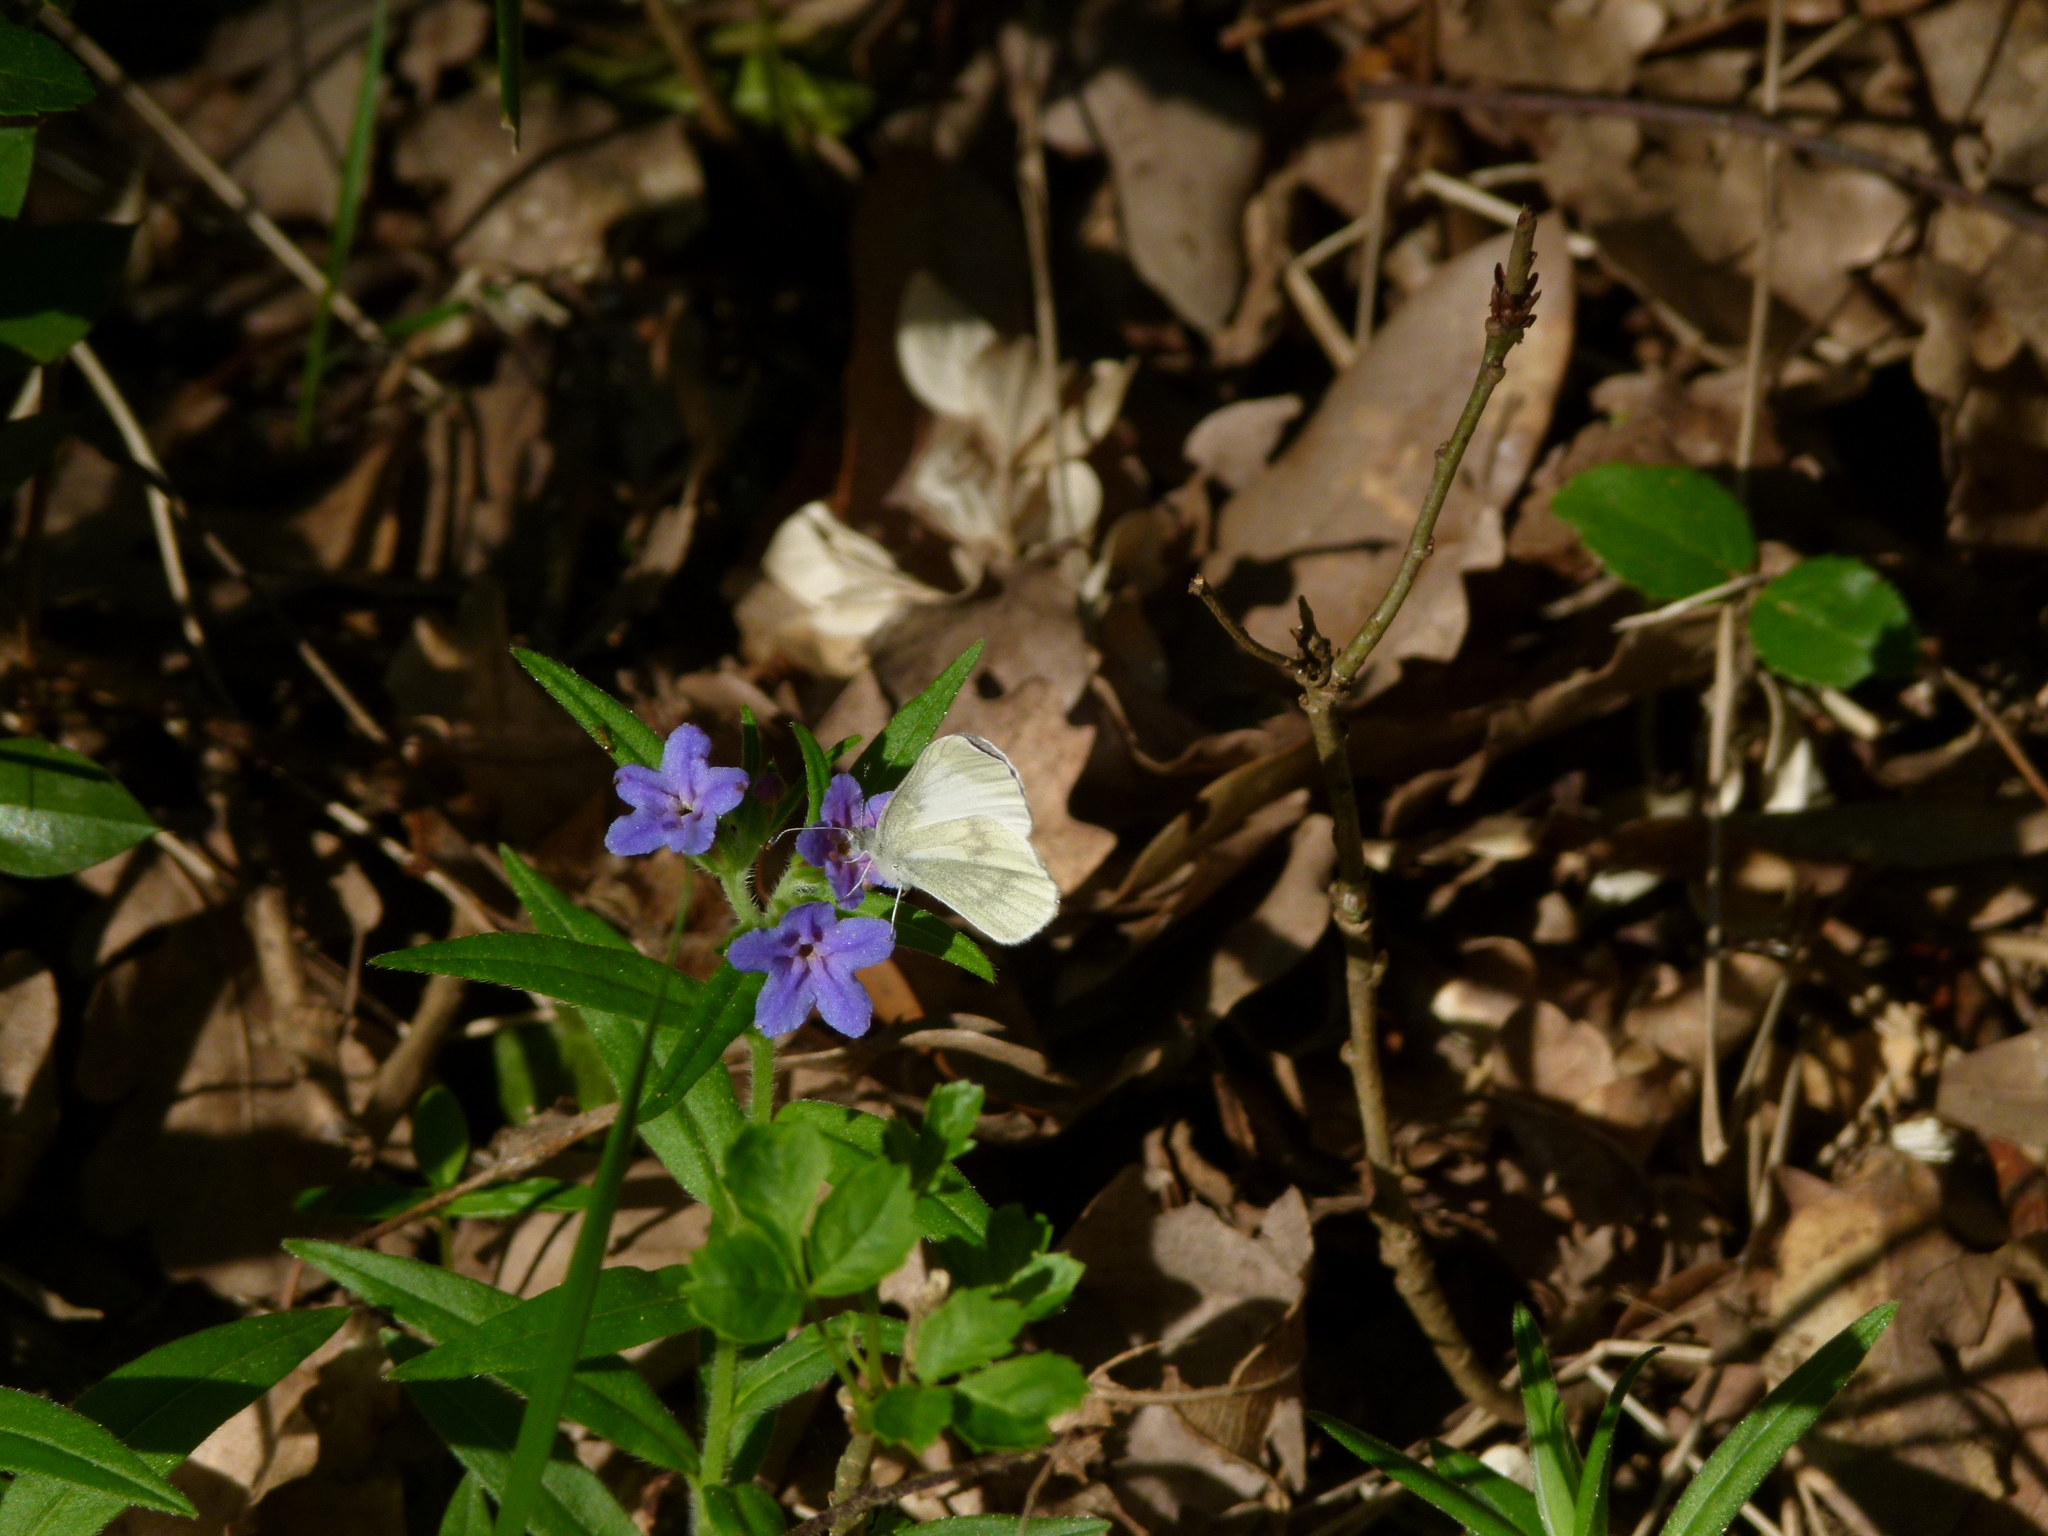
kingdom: Animalia
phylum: Arthropoda
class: Insecta
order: Lepidoptera
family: Pieridae
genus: Leptidea
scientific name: Leptidea
